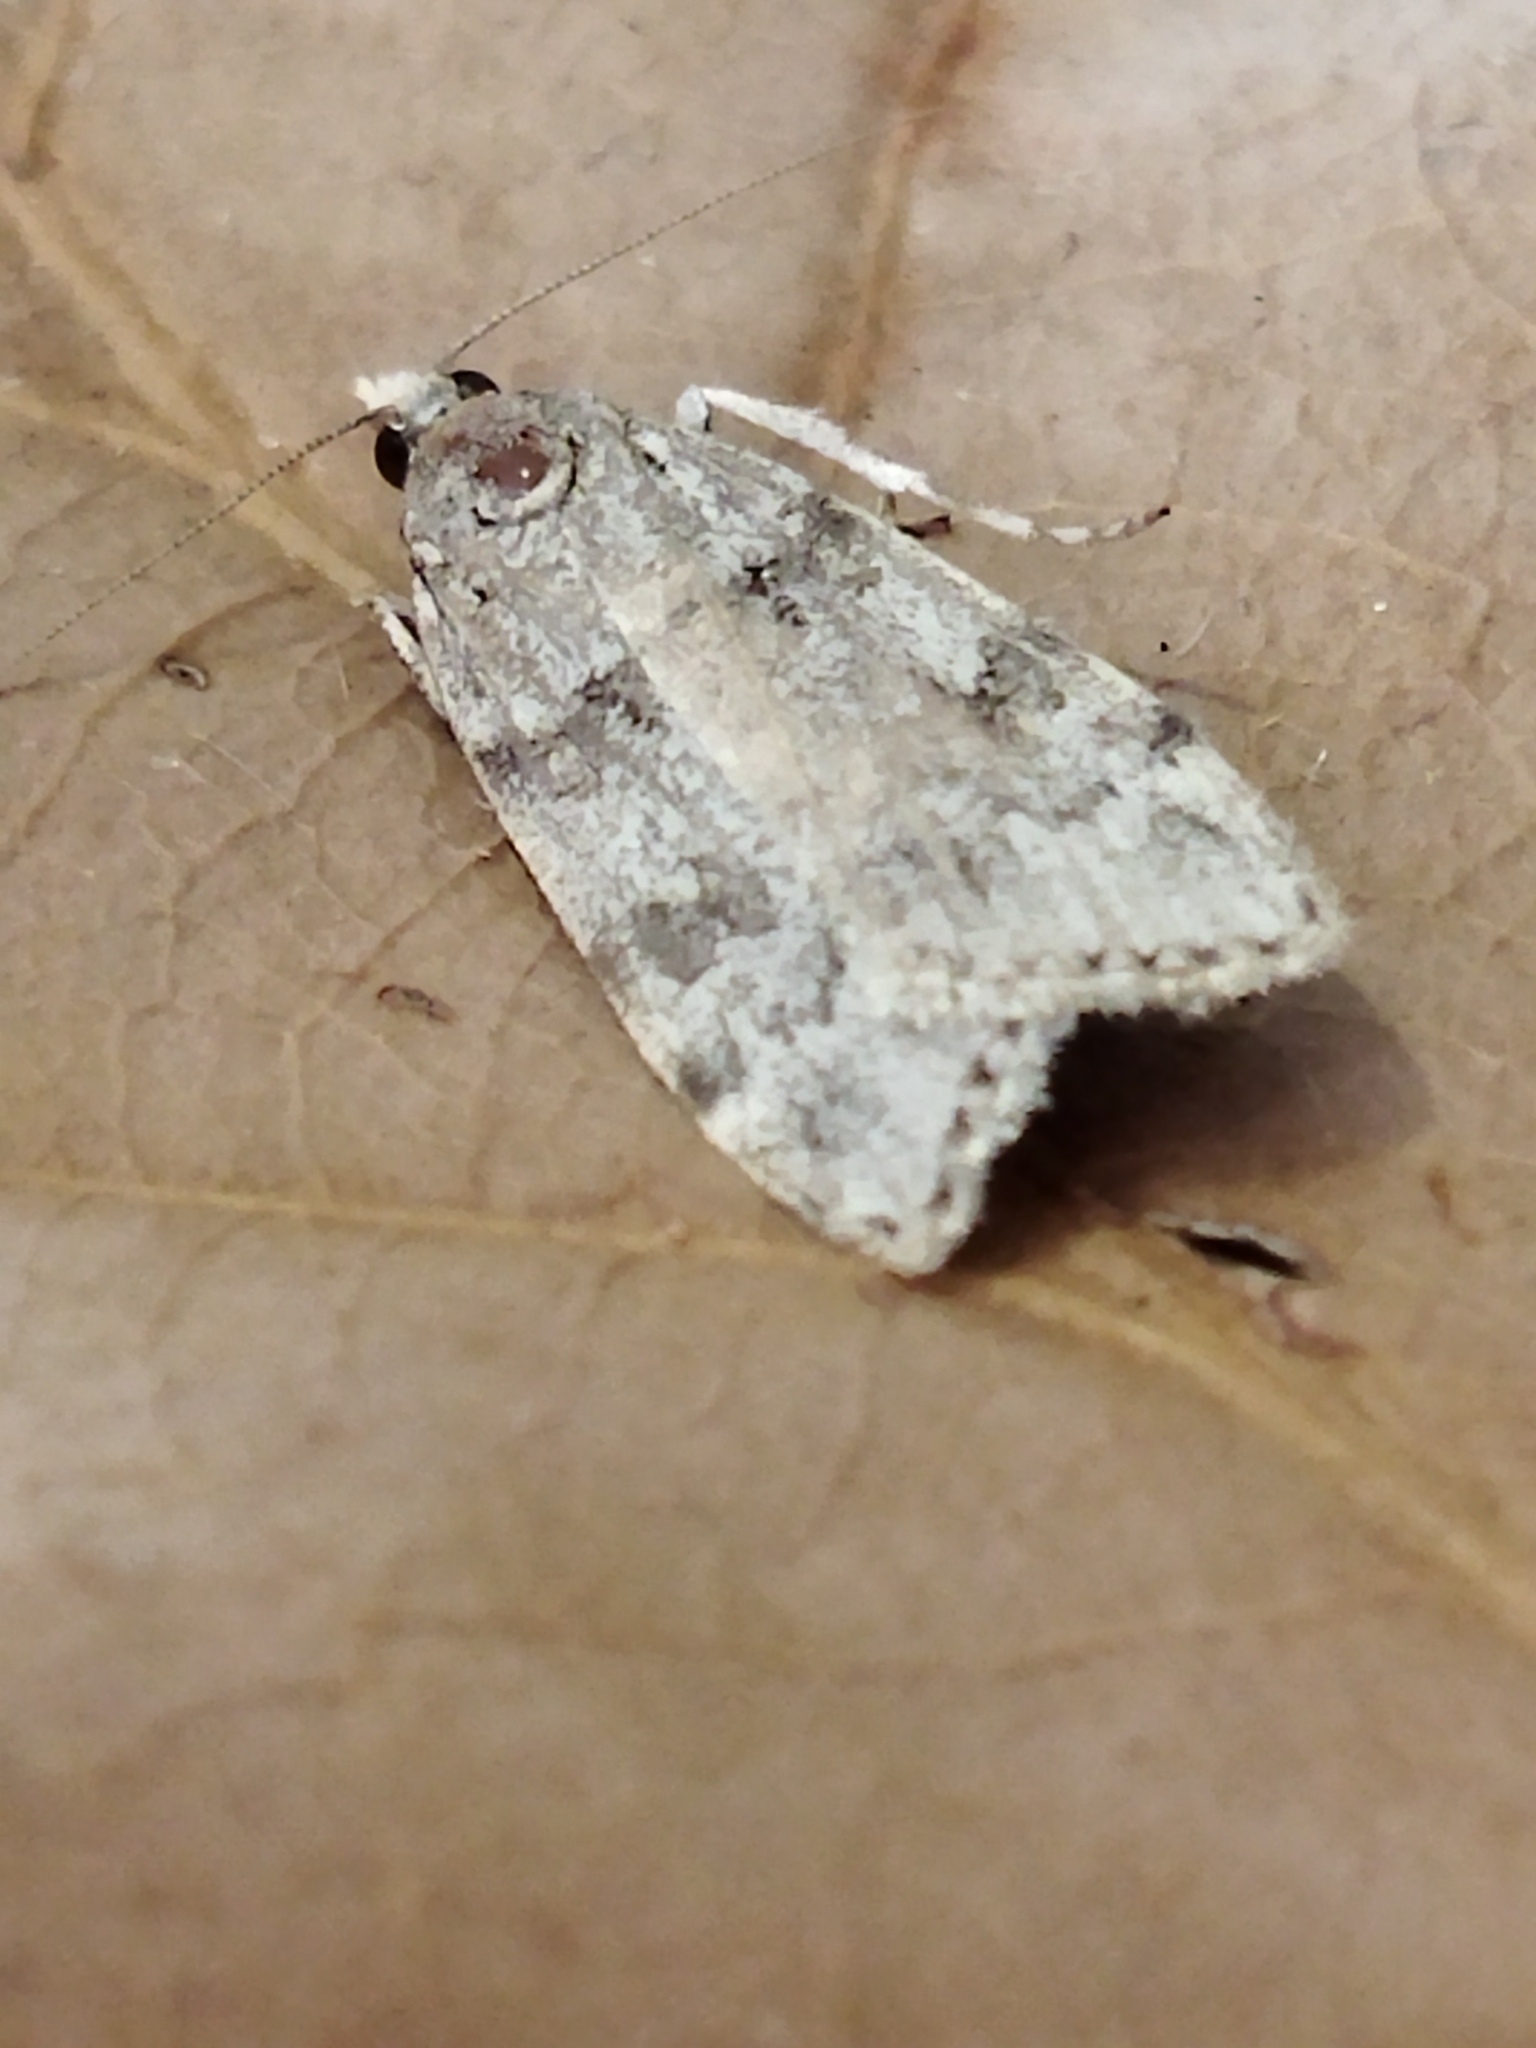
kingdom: Animalia
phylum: Arthropoda
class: Insecta
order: Lepidoptera
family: Crambidae
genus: Scoparia
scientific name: Scoparia cembrella
